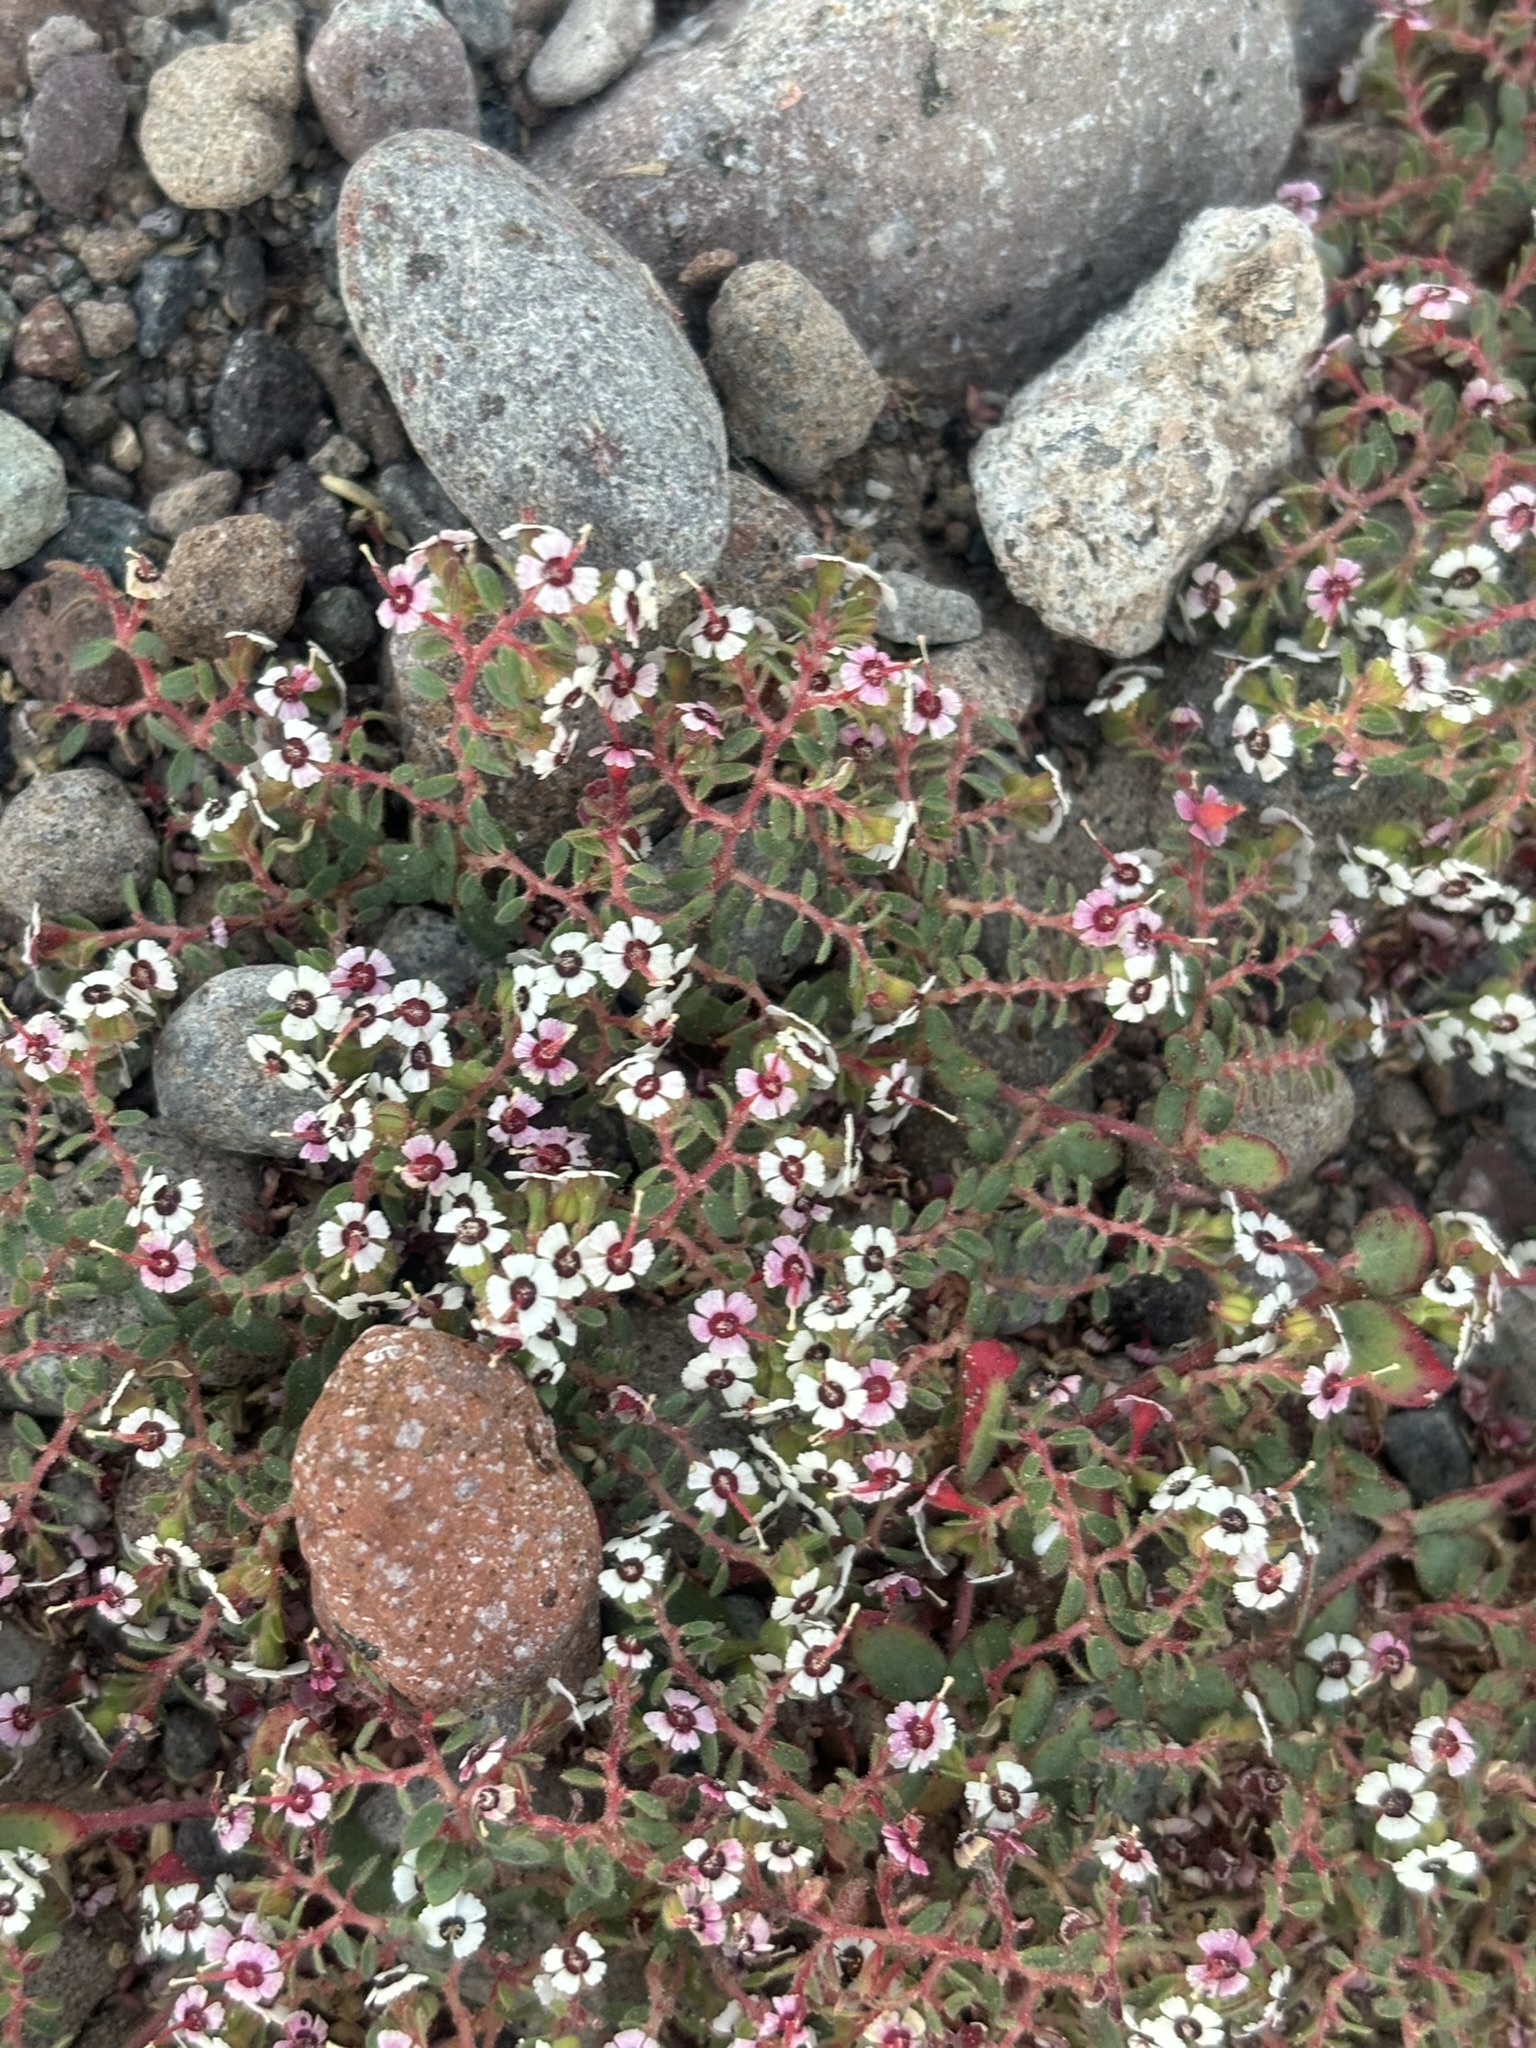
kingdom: Plantae
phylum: Tracheophyta
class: Magnoliopsida
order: Malpighiales
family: Euphorbiaceae
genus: Euphorbia
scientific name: Euphorbia polycarpa
